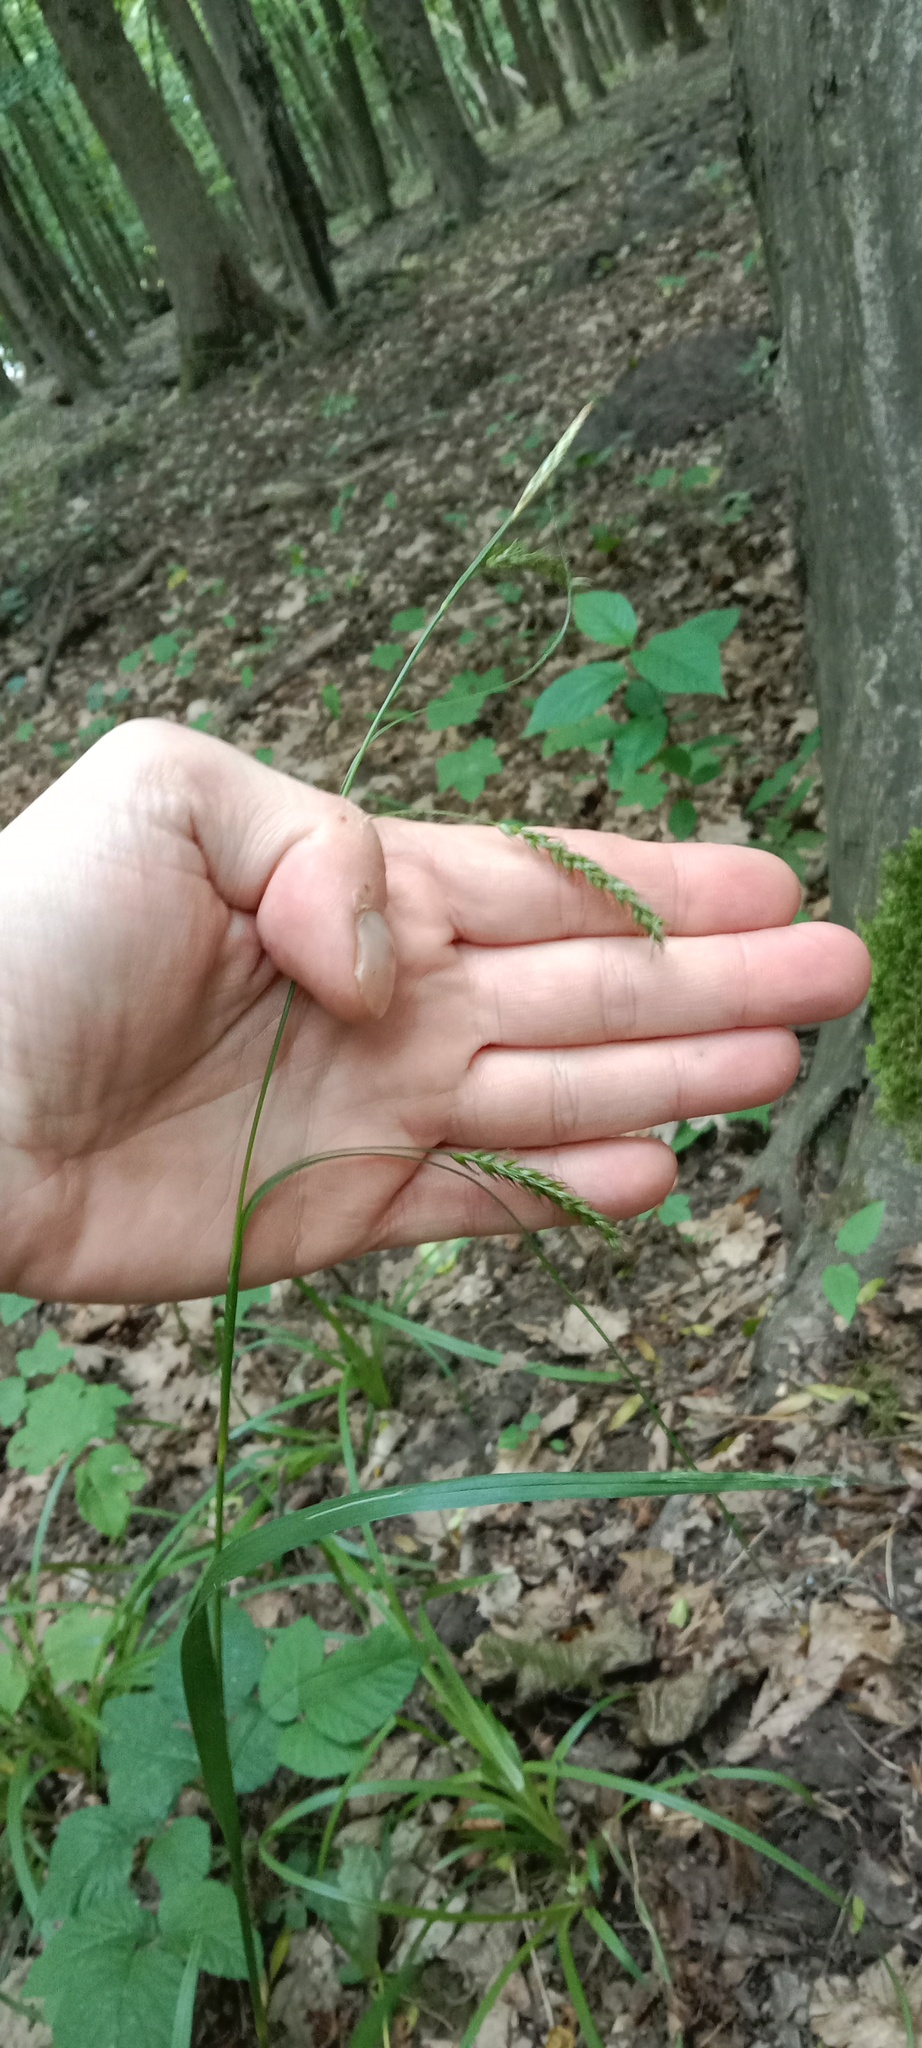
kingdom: Plantae
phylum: Tracheophyta
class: Liliopsida
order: Poales
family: Cyperaceae
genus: Carex
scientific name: Carex sylvatica
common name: Wood-sedge
